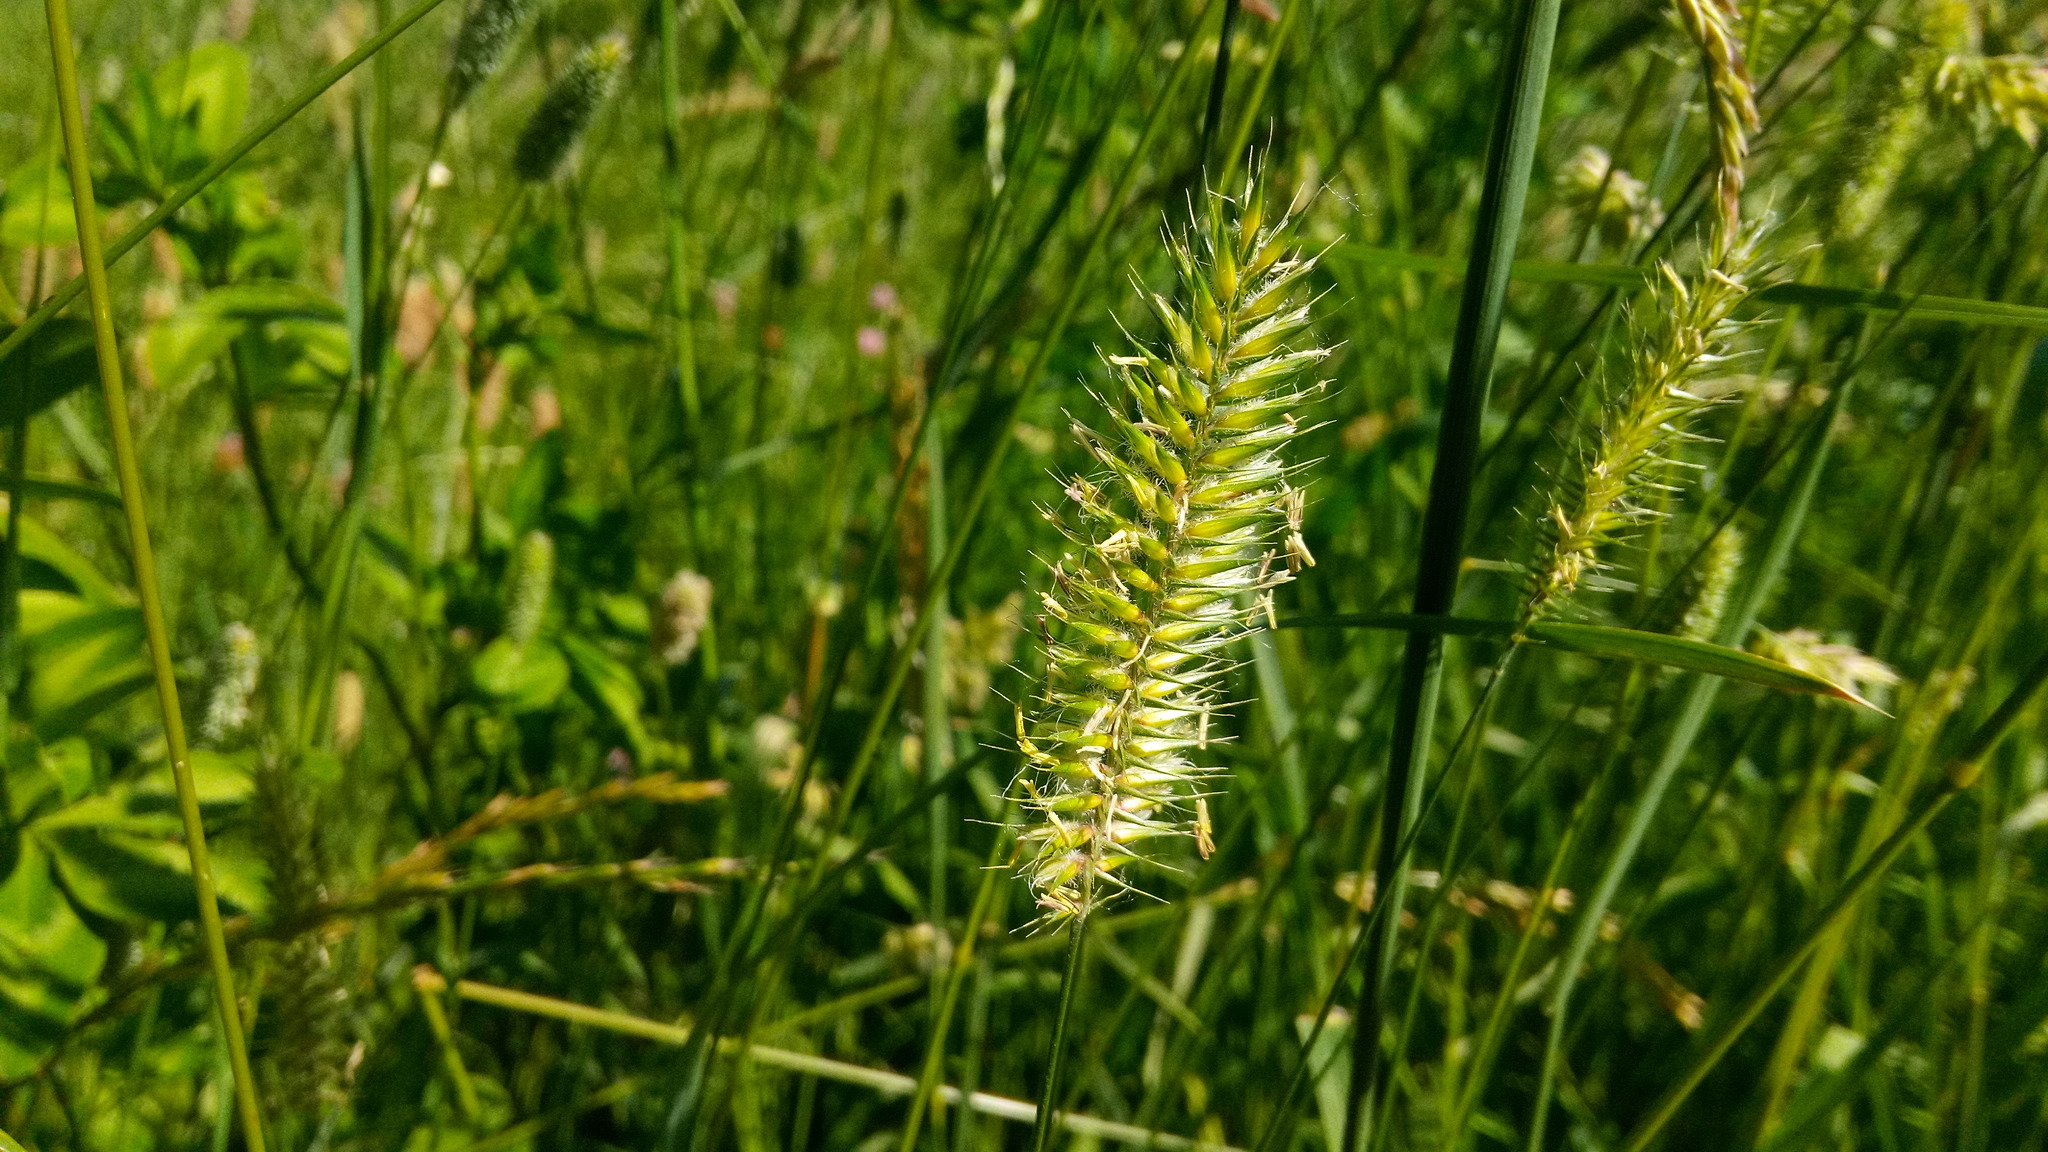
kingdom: Plantae
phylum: Tracheophyta
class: Liliopsida
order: Poales
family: Poaceae
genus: Agropyron
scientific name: Agropyron cristatum
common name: Crested wheatgrass
